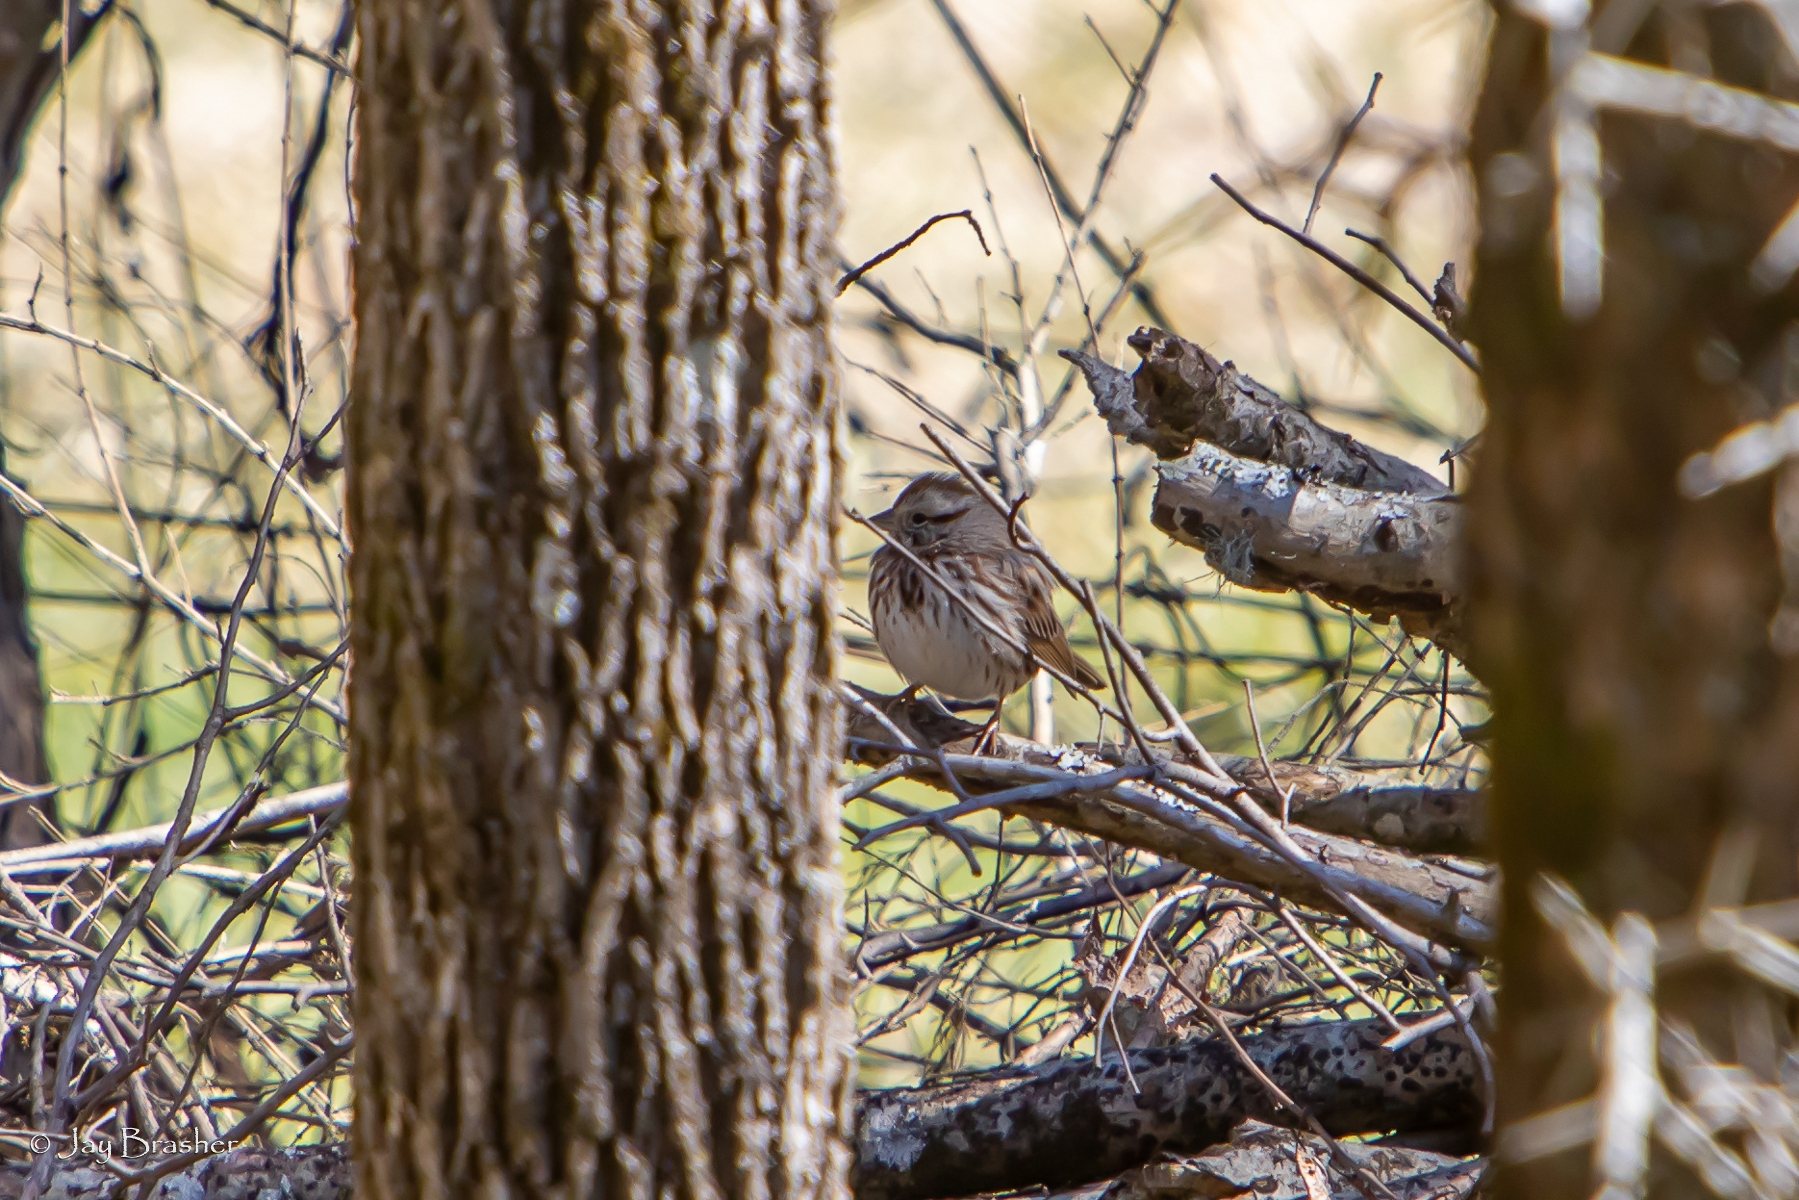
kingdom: Animalia
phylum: Chordata
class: Aves
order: Passeriformes
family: Passerellidae
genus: Melospiza
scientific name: Melospiza melodia
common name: Song sparrow
